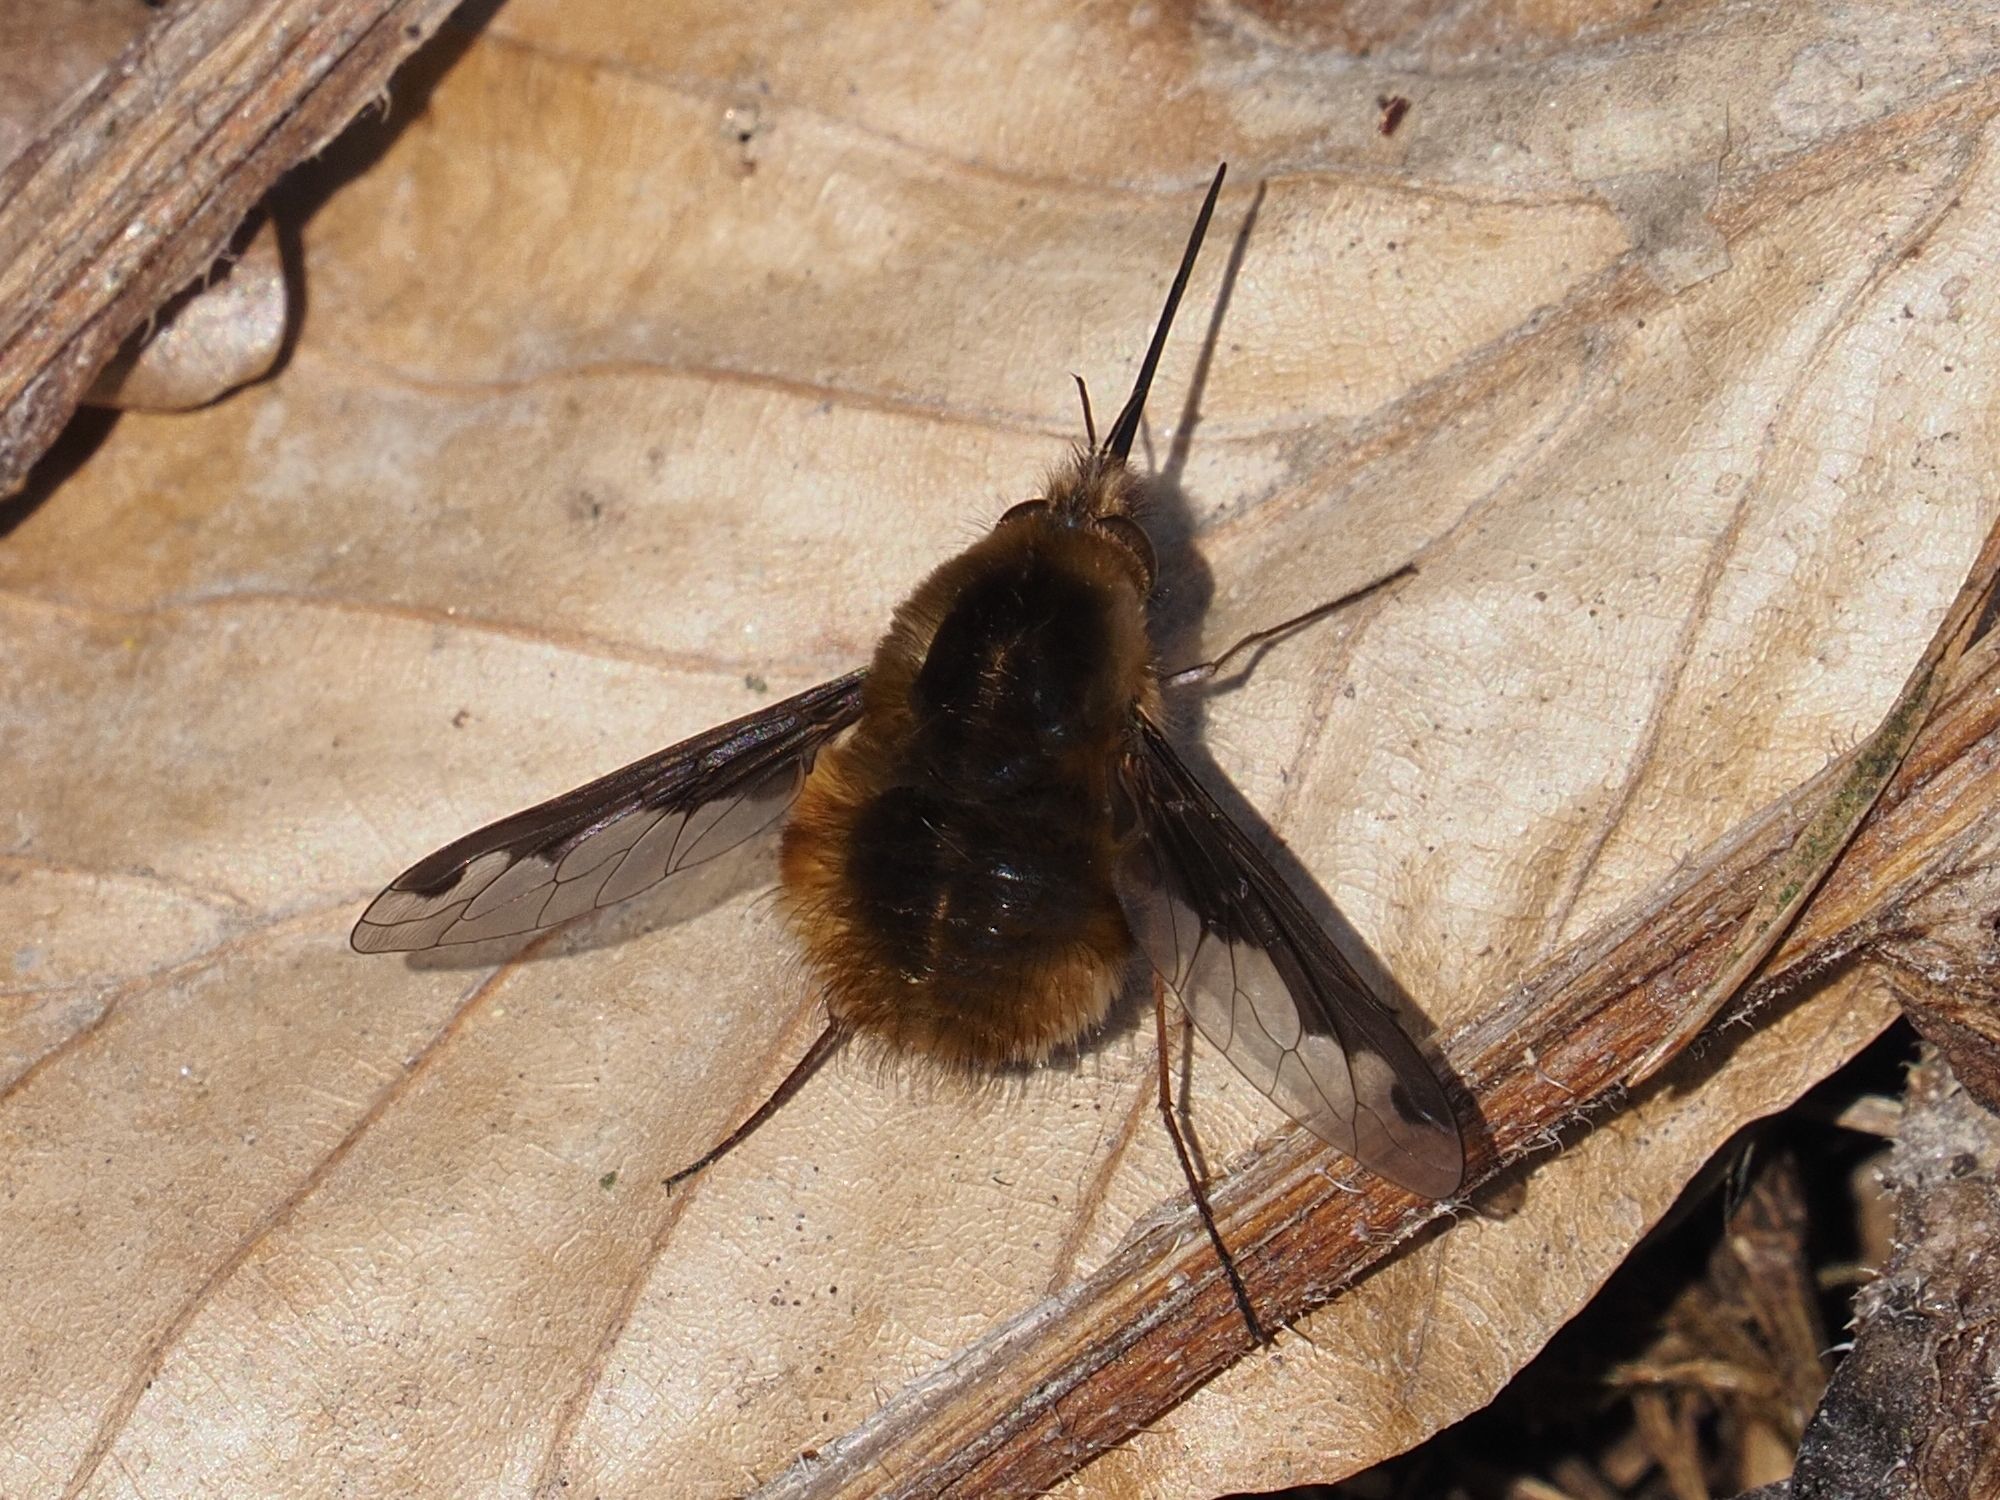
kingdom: Animalia
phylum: Arthropoda
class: Insecta
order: Diptera
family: Bombyliidae
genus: Bombylius
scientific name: Bombylius major
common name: Bee fly
